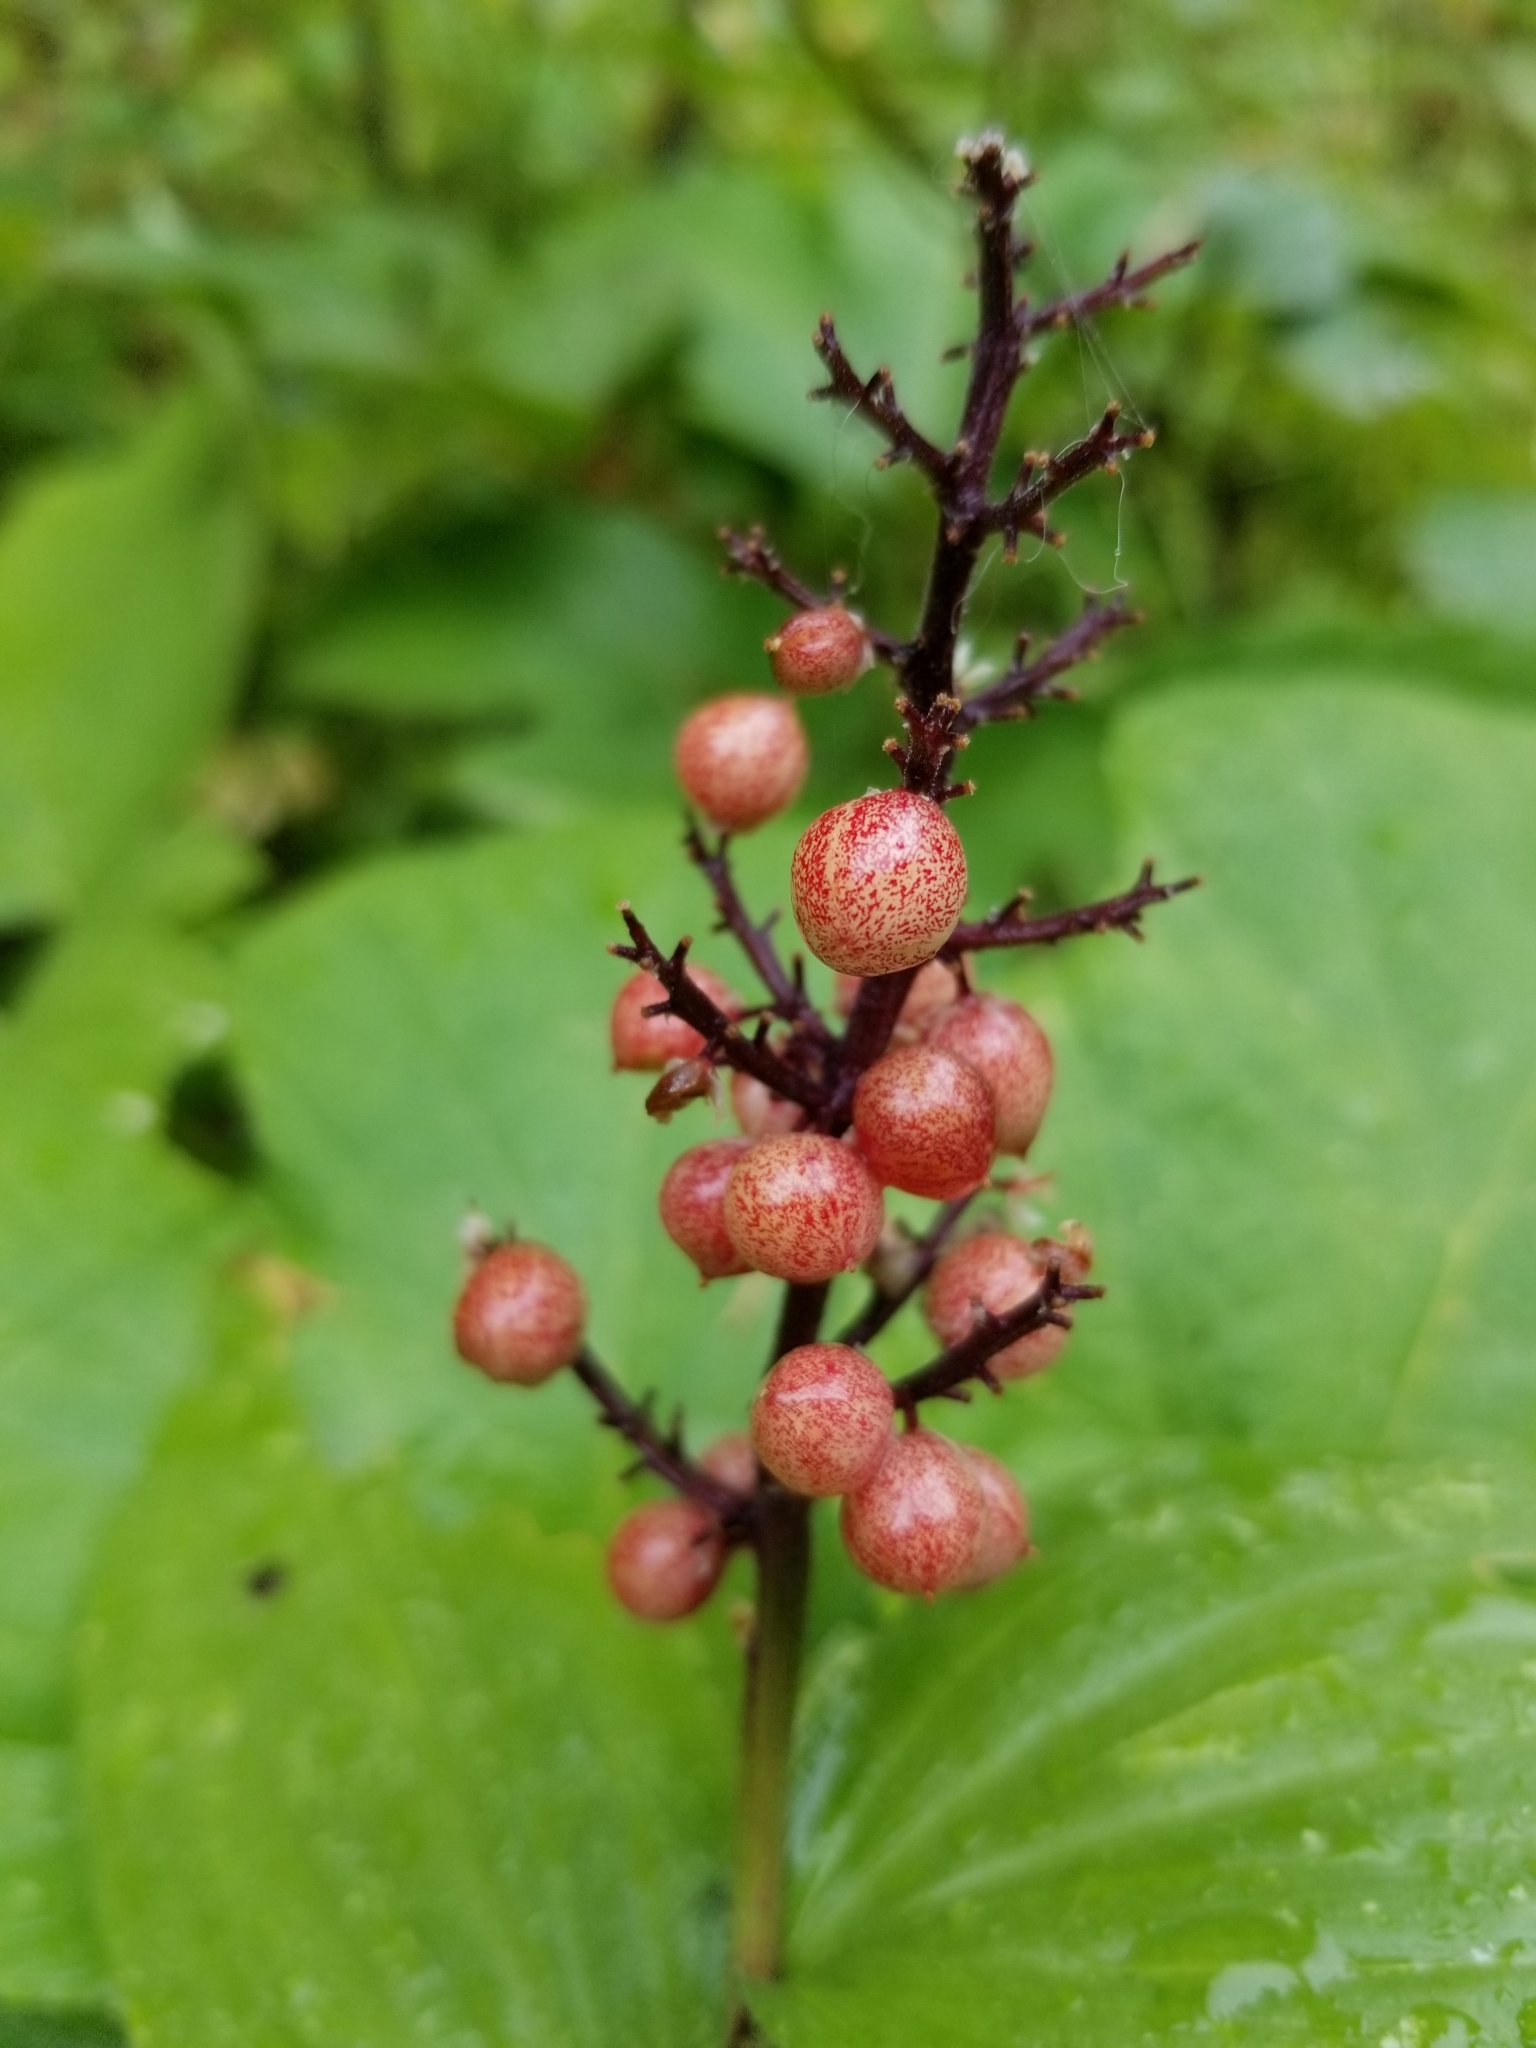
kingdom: Plantae
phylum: Tracheophyta
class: Liliopsida
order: Asparagales
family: Asparagaceae
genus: Maianthemum
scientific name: Maianthemum racemosum
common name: False spikenard
